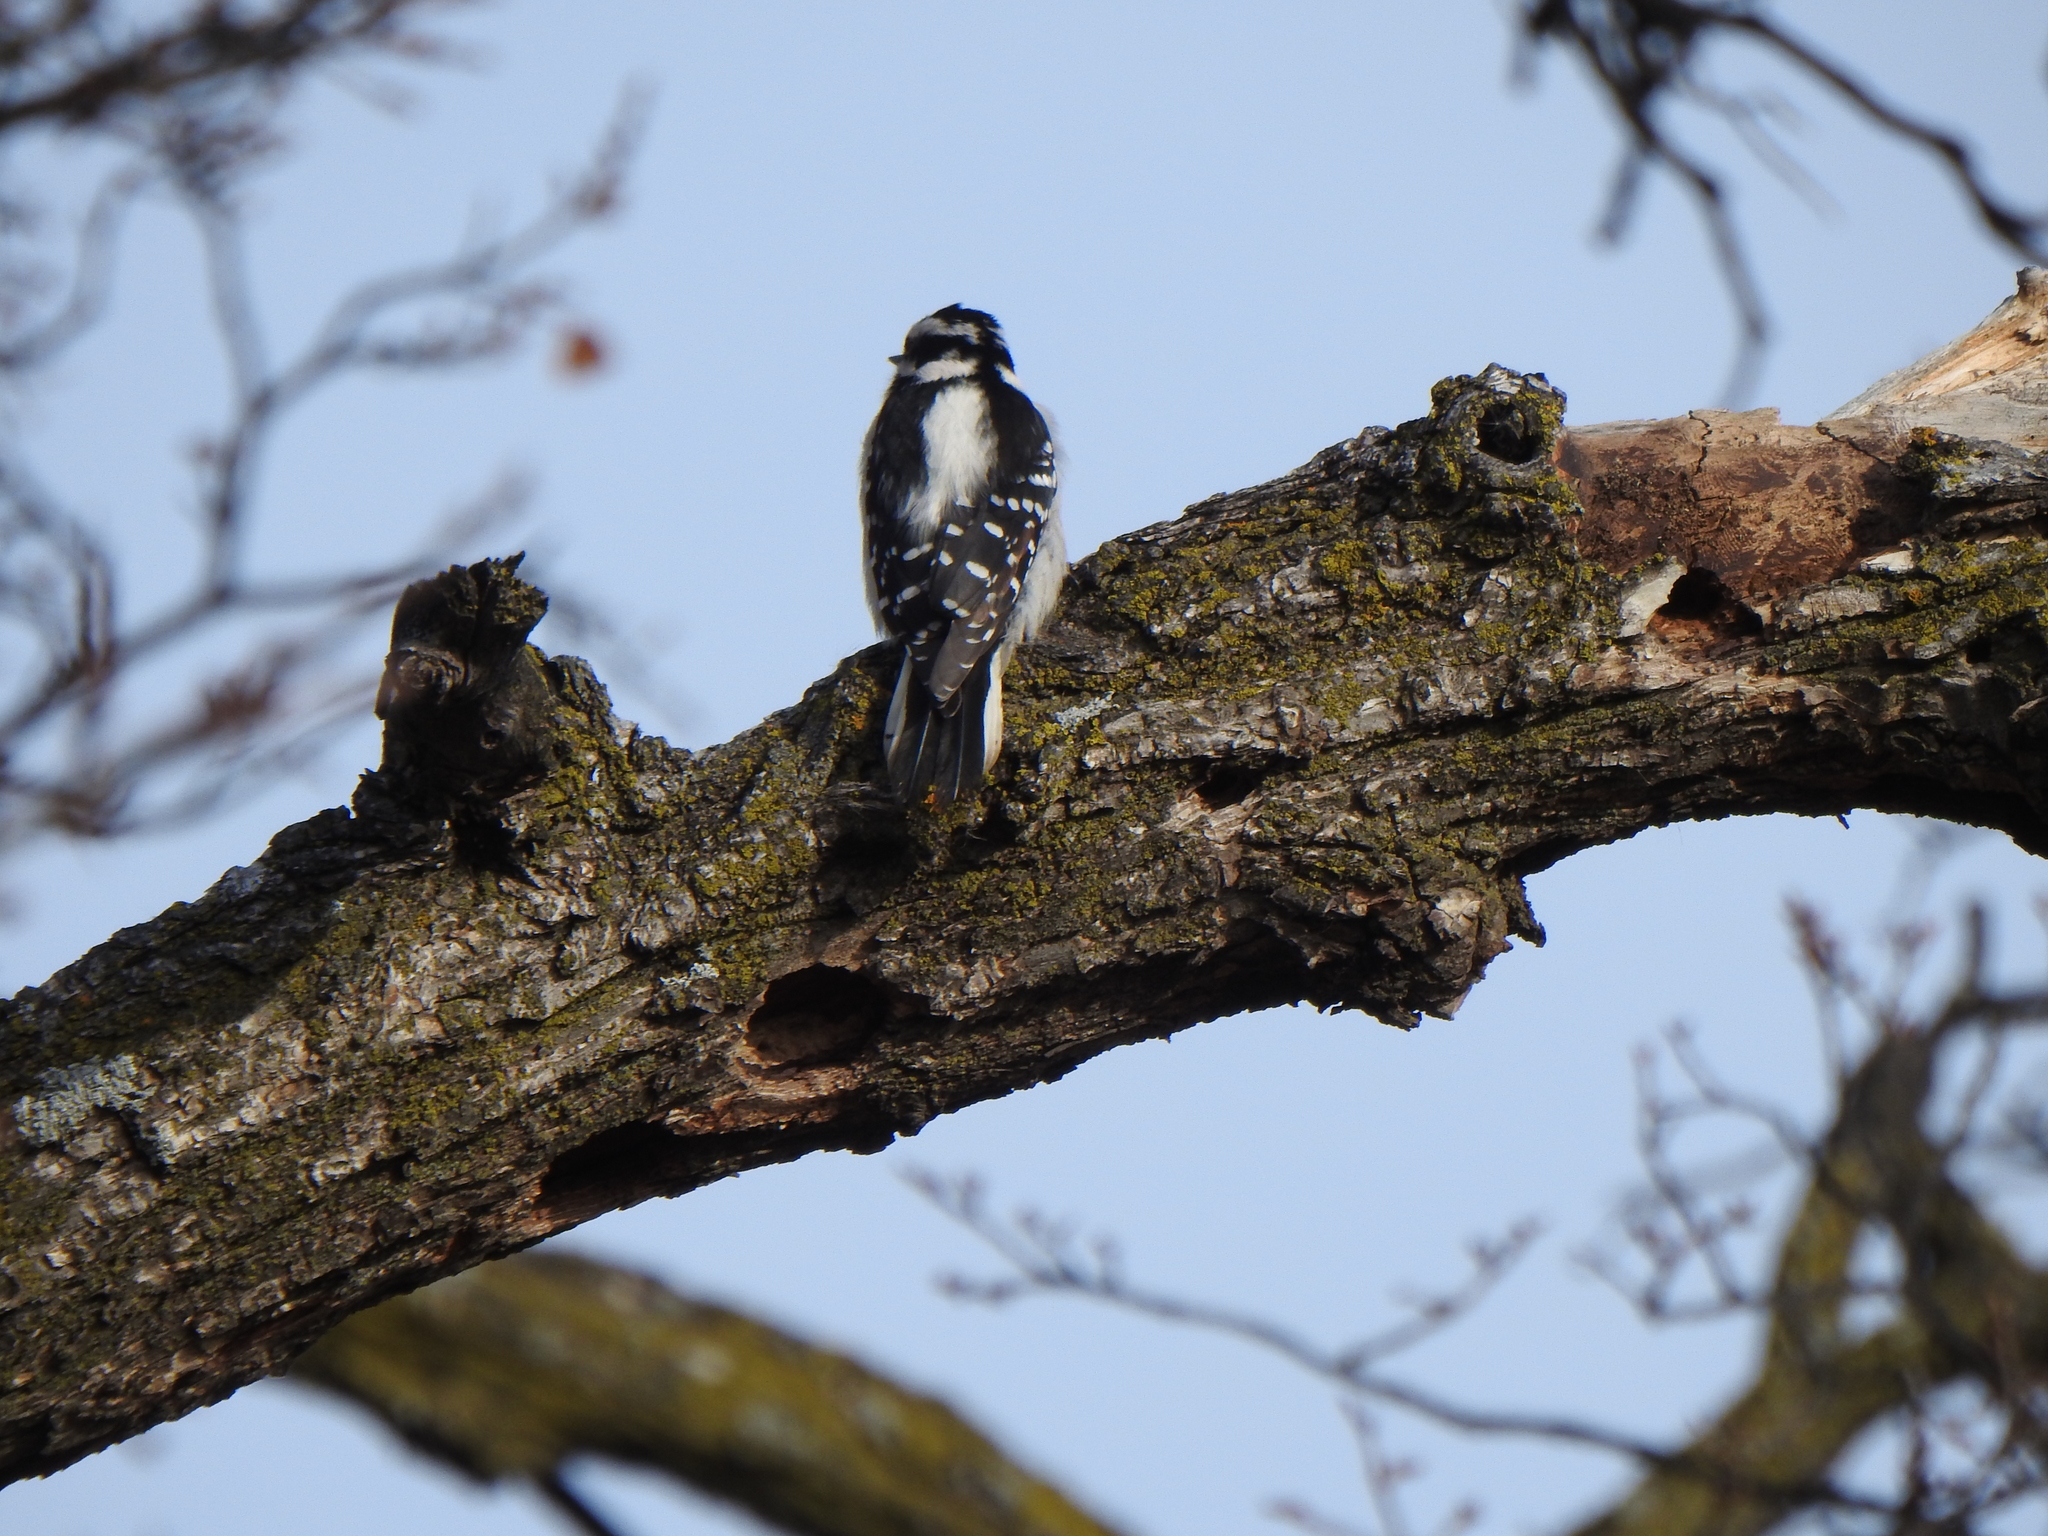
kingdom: Animalia
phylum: Chordata
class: Aves
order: Piciformes
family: Picidae
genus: Dryobates
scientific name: Dryobates pubescens
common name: Downy woodpecker
